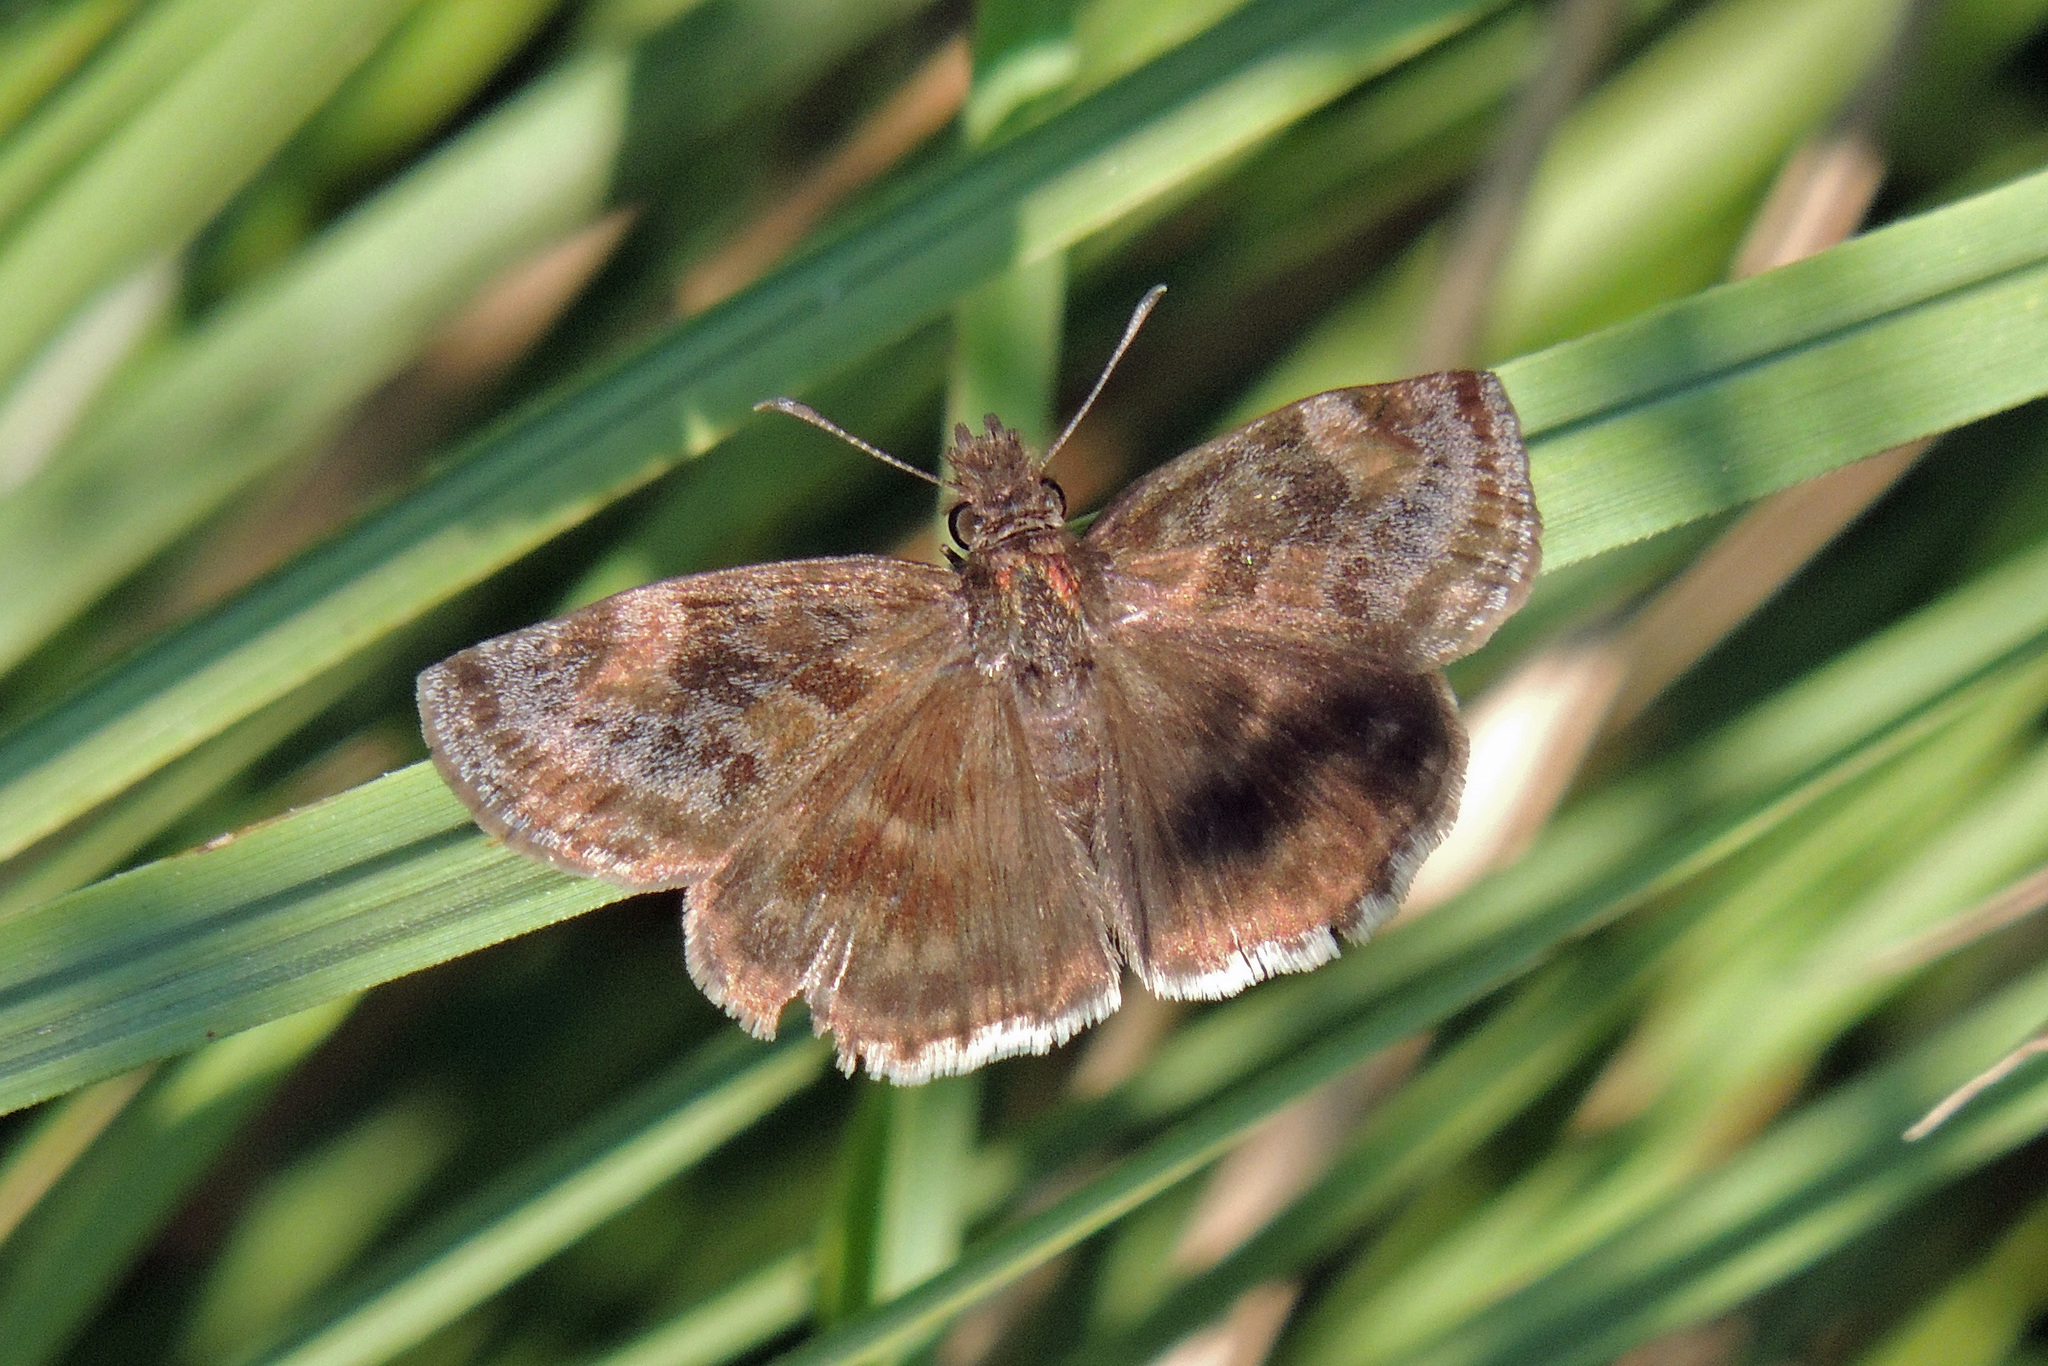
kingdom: Animalia
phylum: Arthropoda
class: Insecta
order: Lepidoptera
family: Hesperiidae
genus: Gesta
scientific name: Gesta gesta
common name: Gesta duskywing
